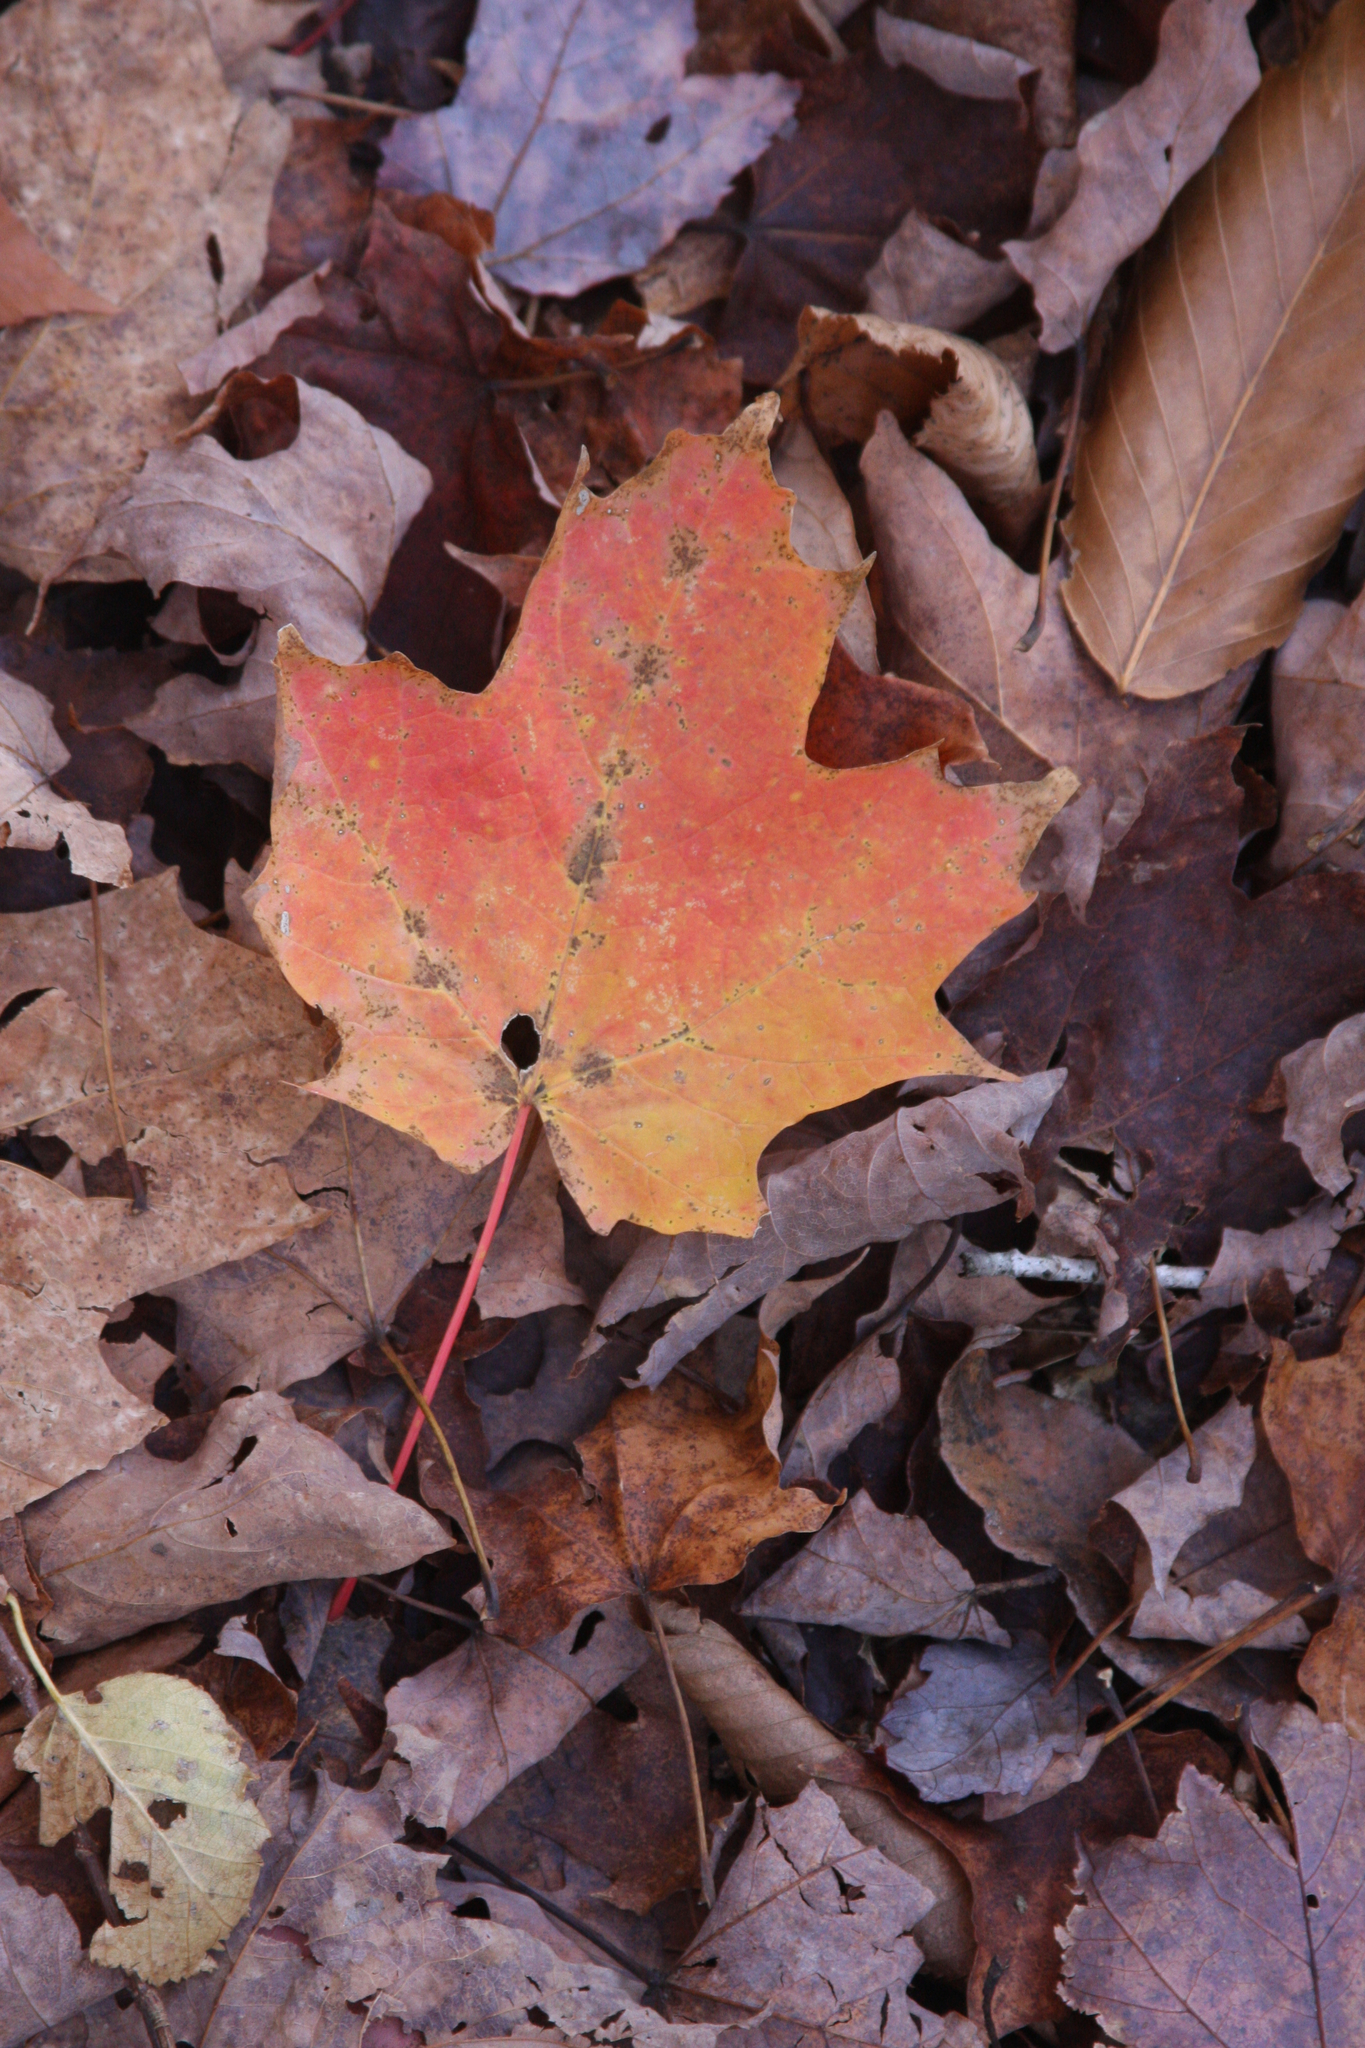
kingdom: Plantae
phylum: Tracheophyta
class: Magnoliopsida
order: Sapindales
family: Sapindaceae
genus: Acer
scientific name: Acer saccharum
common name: Sugar maple
